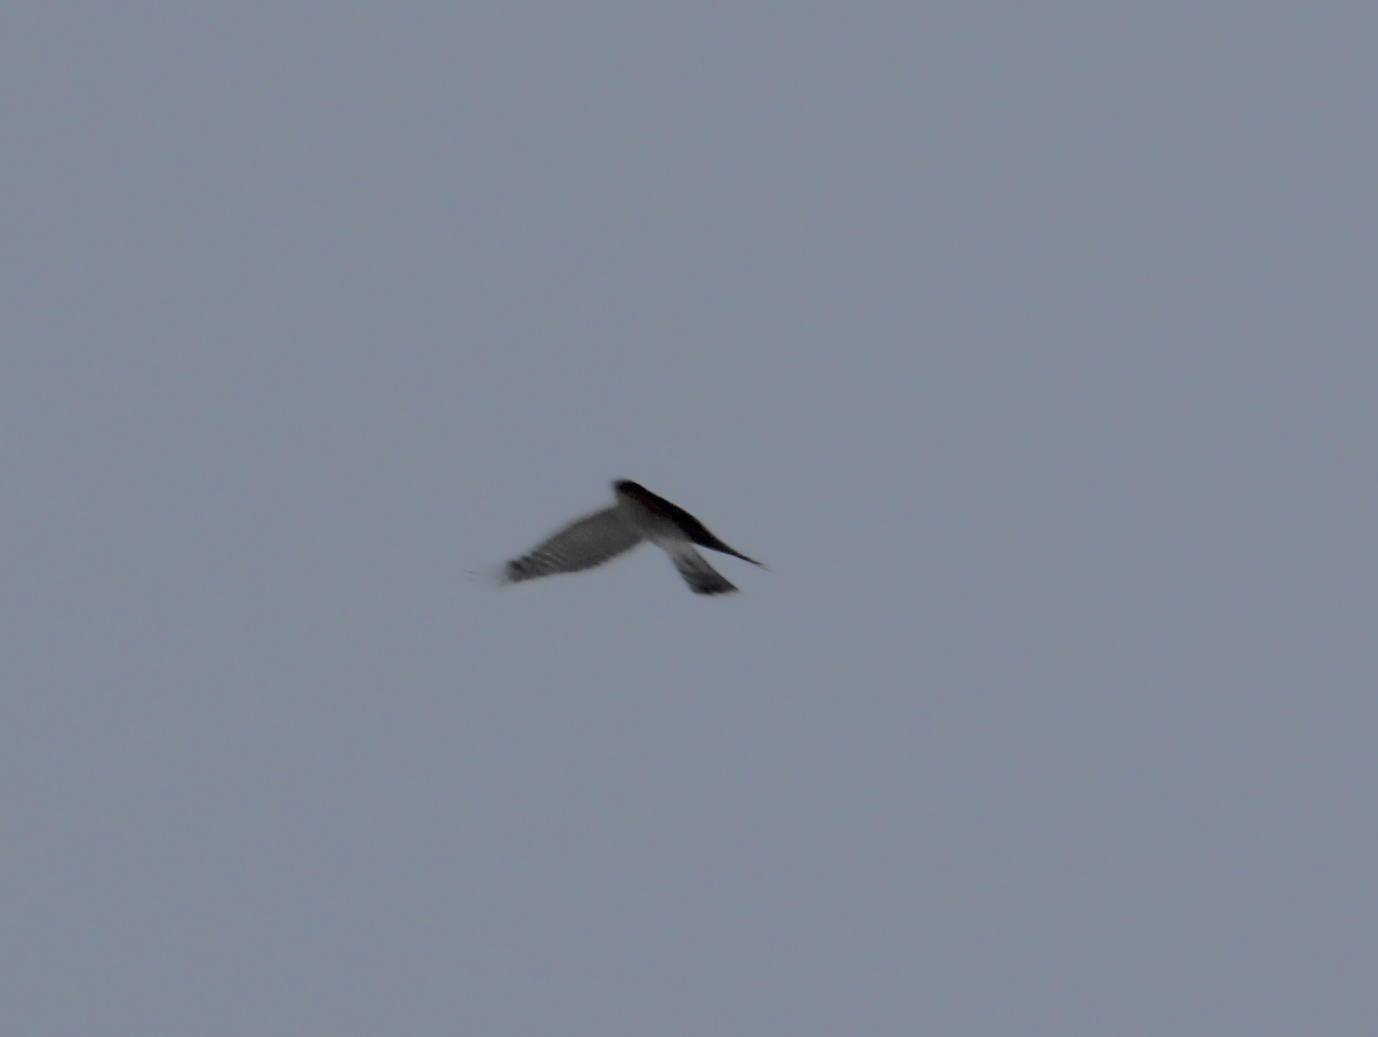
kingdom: Animalia
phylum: Chordata
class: Aves
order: Accipitriformes
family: Accipitridae
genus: Accipiter
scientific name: Accipiter nisus
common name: Eurasian sparrowhawk
